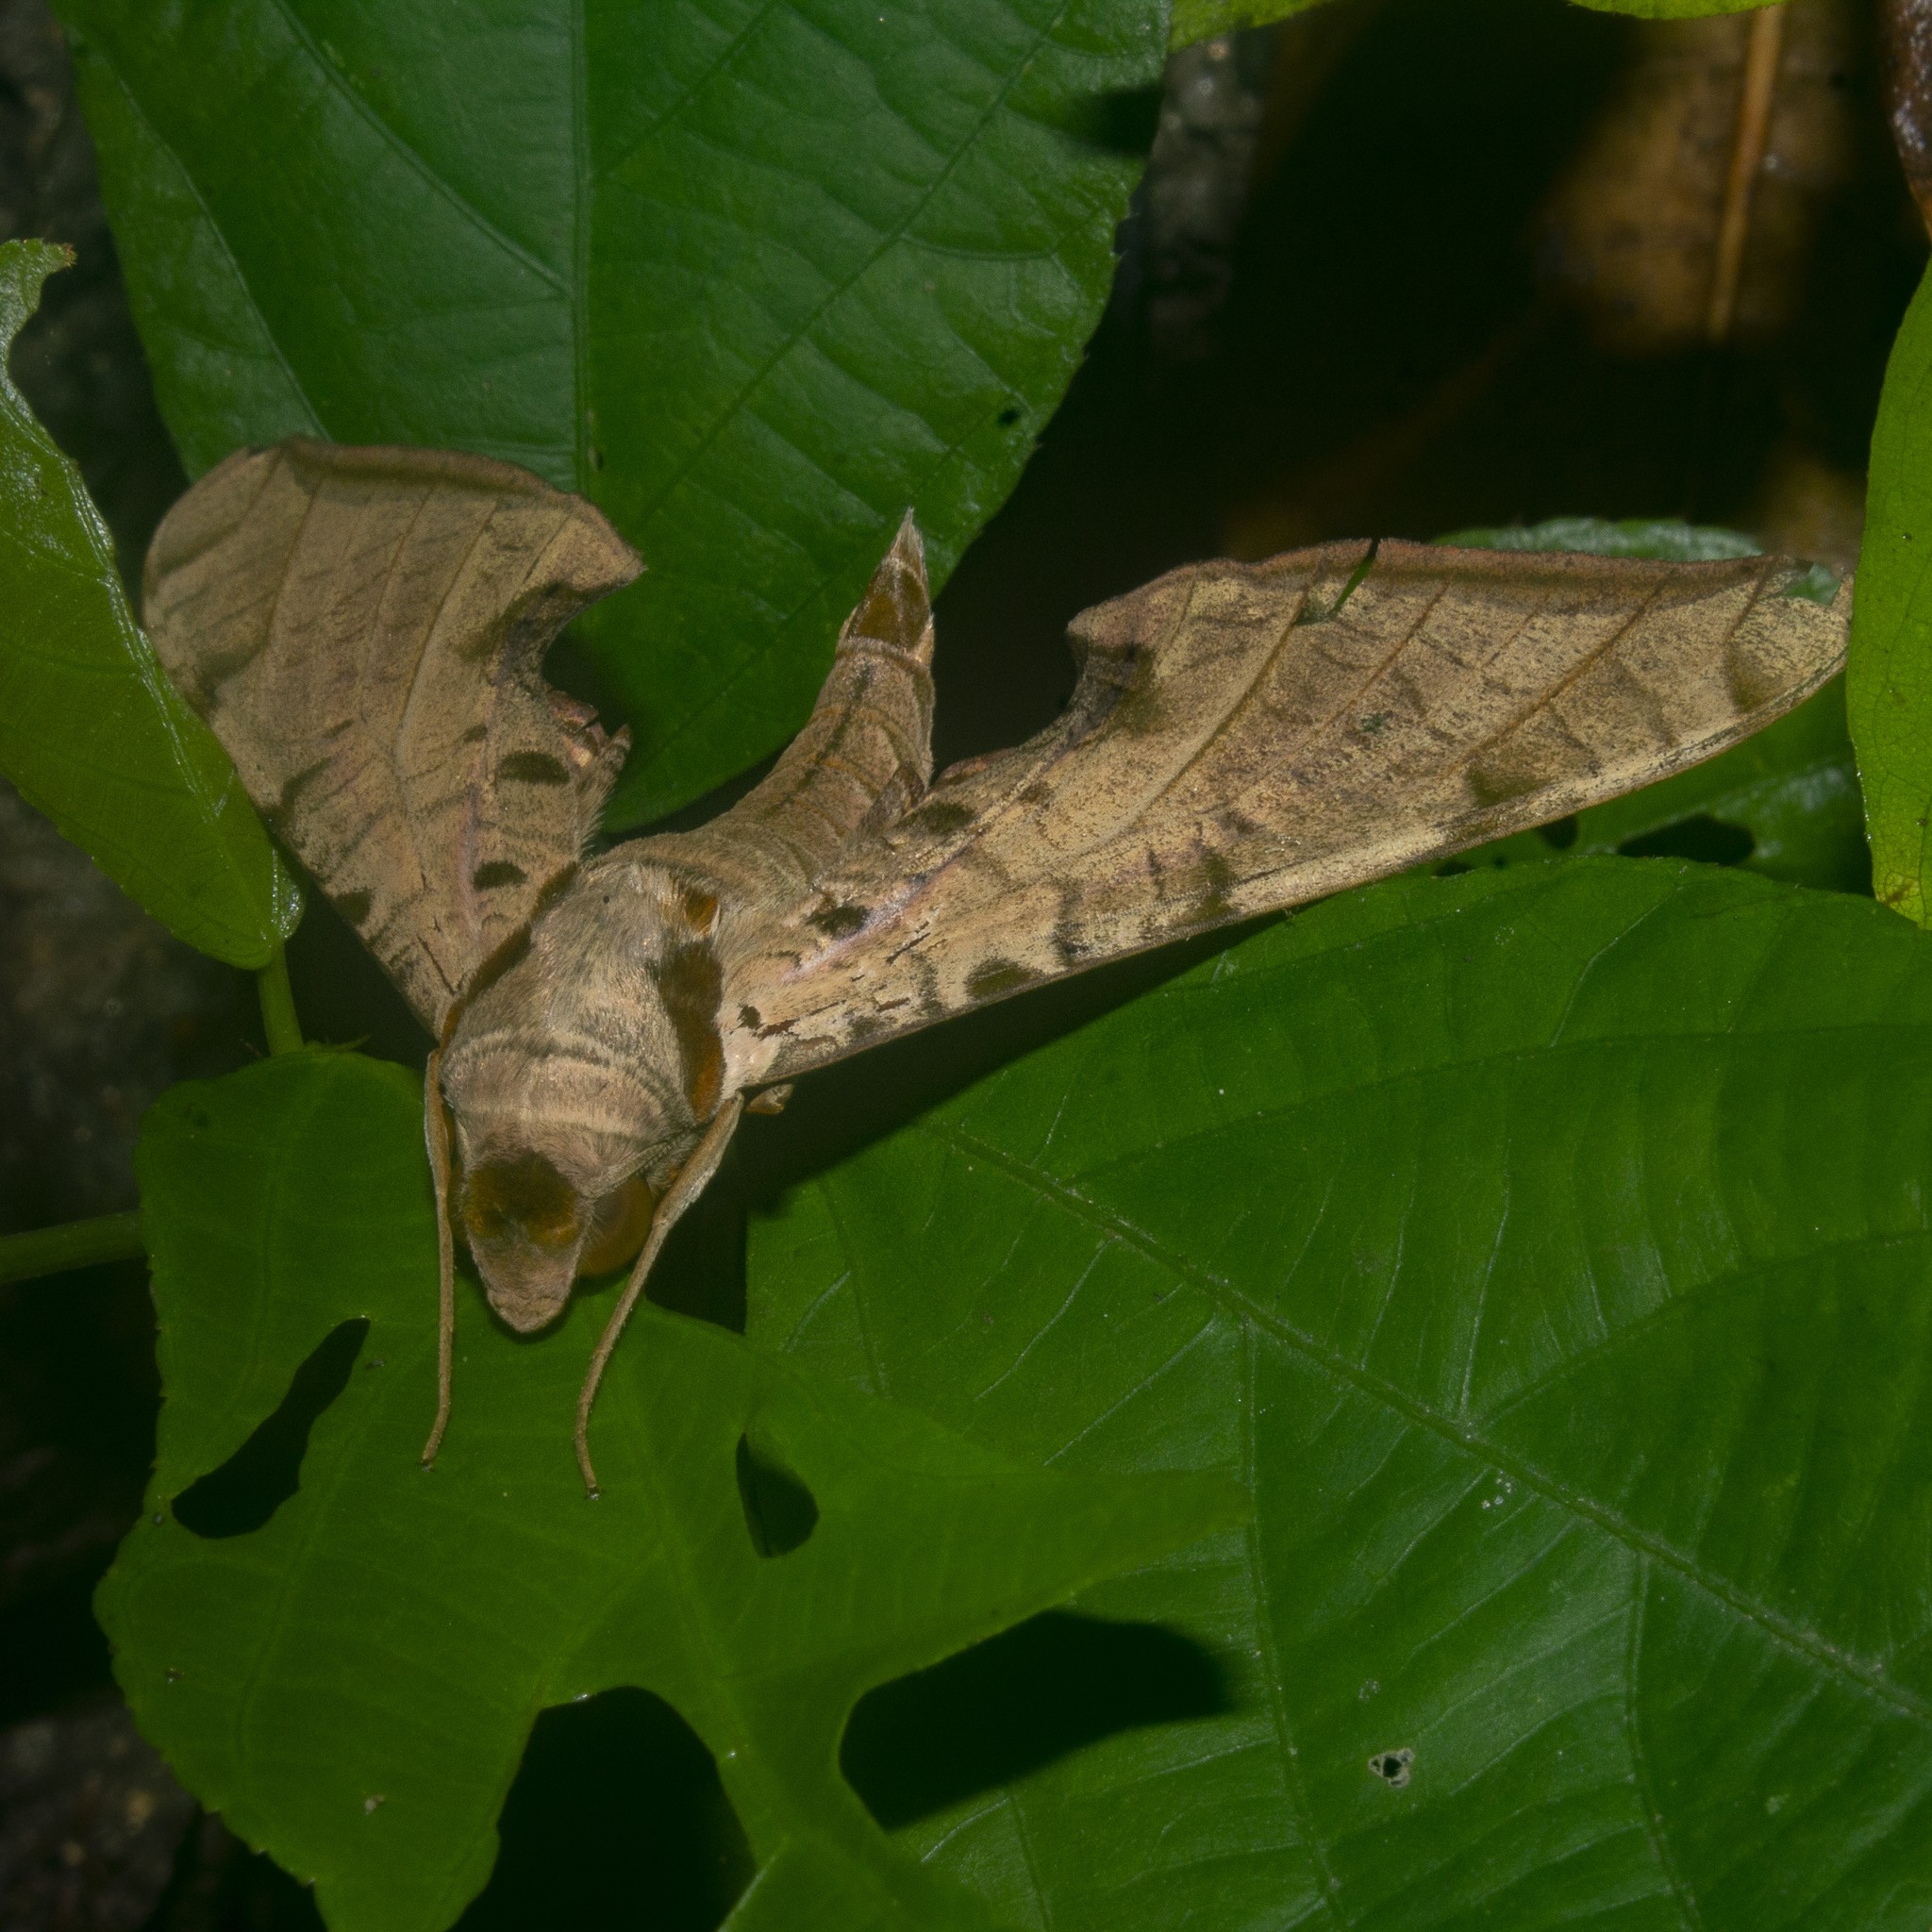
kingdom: Animalia
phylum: Arthropoda
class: Insecta
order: Lepidoptera
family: Sphingidae
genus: Protambulyx
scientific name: Protambulyx strigilis
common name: Streaked sphinx
